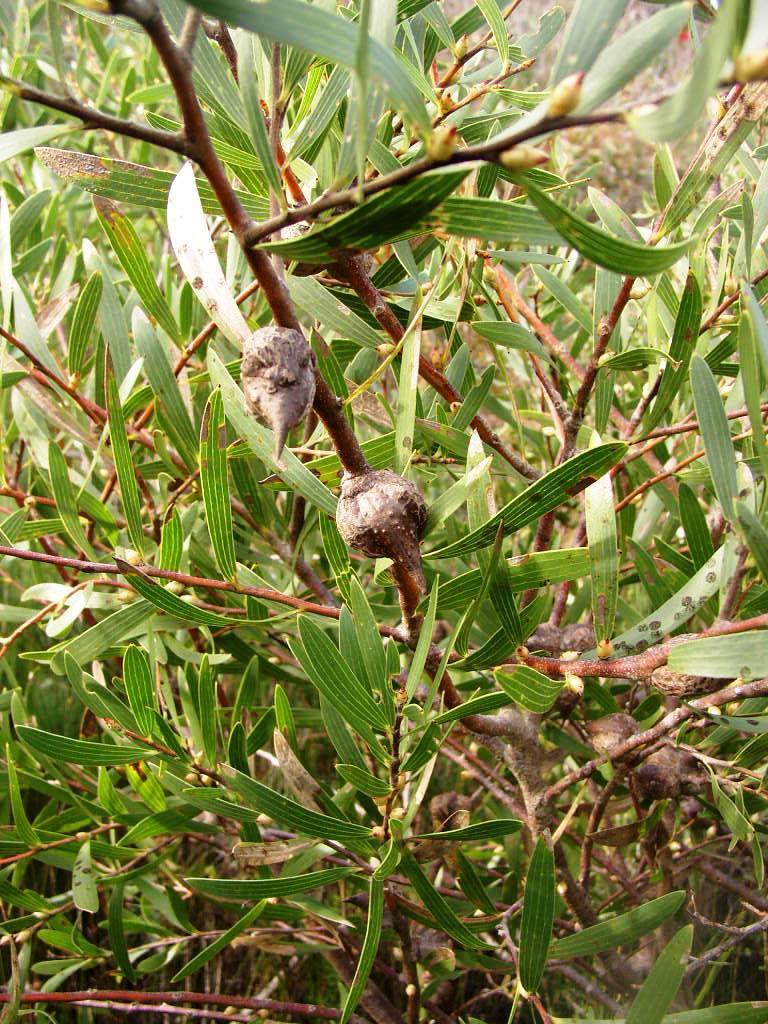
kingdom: Plantae
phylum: Tracheophyta
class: Magnoliopsida
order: Proteales
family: Proteaceae
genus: Hakea
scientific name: Hakea ambigua
